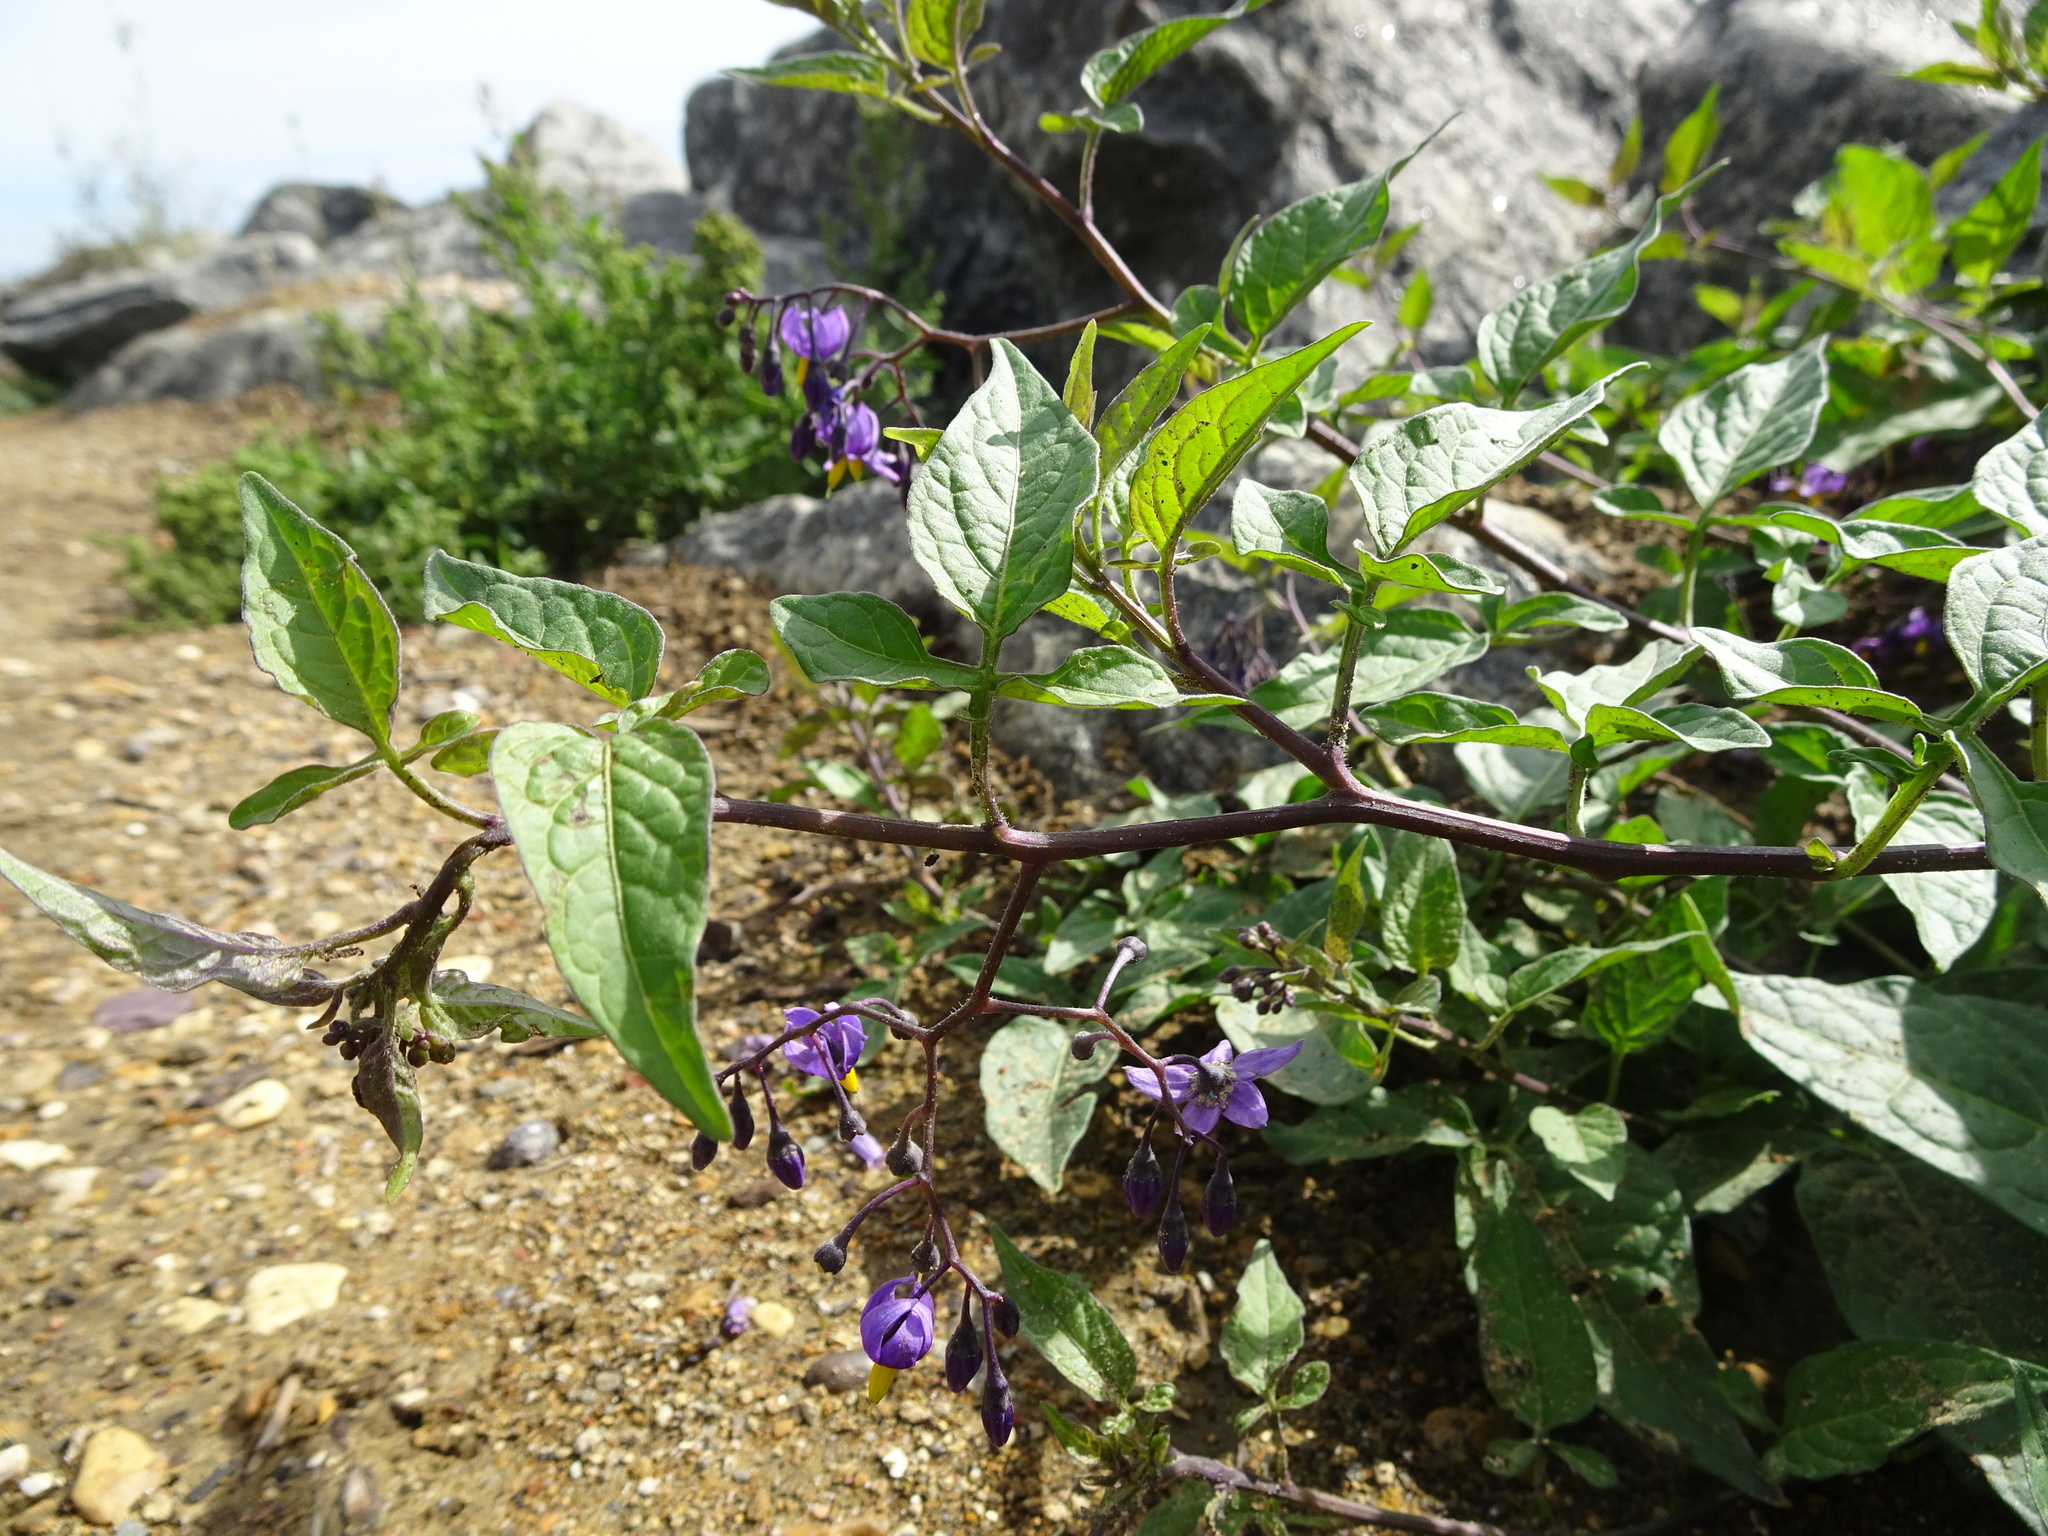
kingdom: Plantae
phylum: Tracheophyta
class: Magnoliopsida
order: Solanales
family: Solanaceae
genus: Solanum
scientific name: Solanum dulcamara
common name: Climbing nightshade
